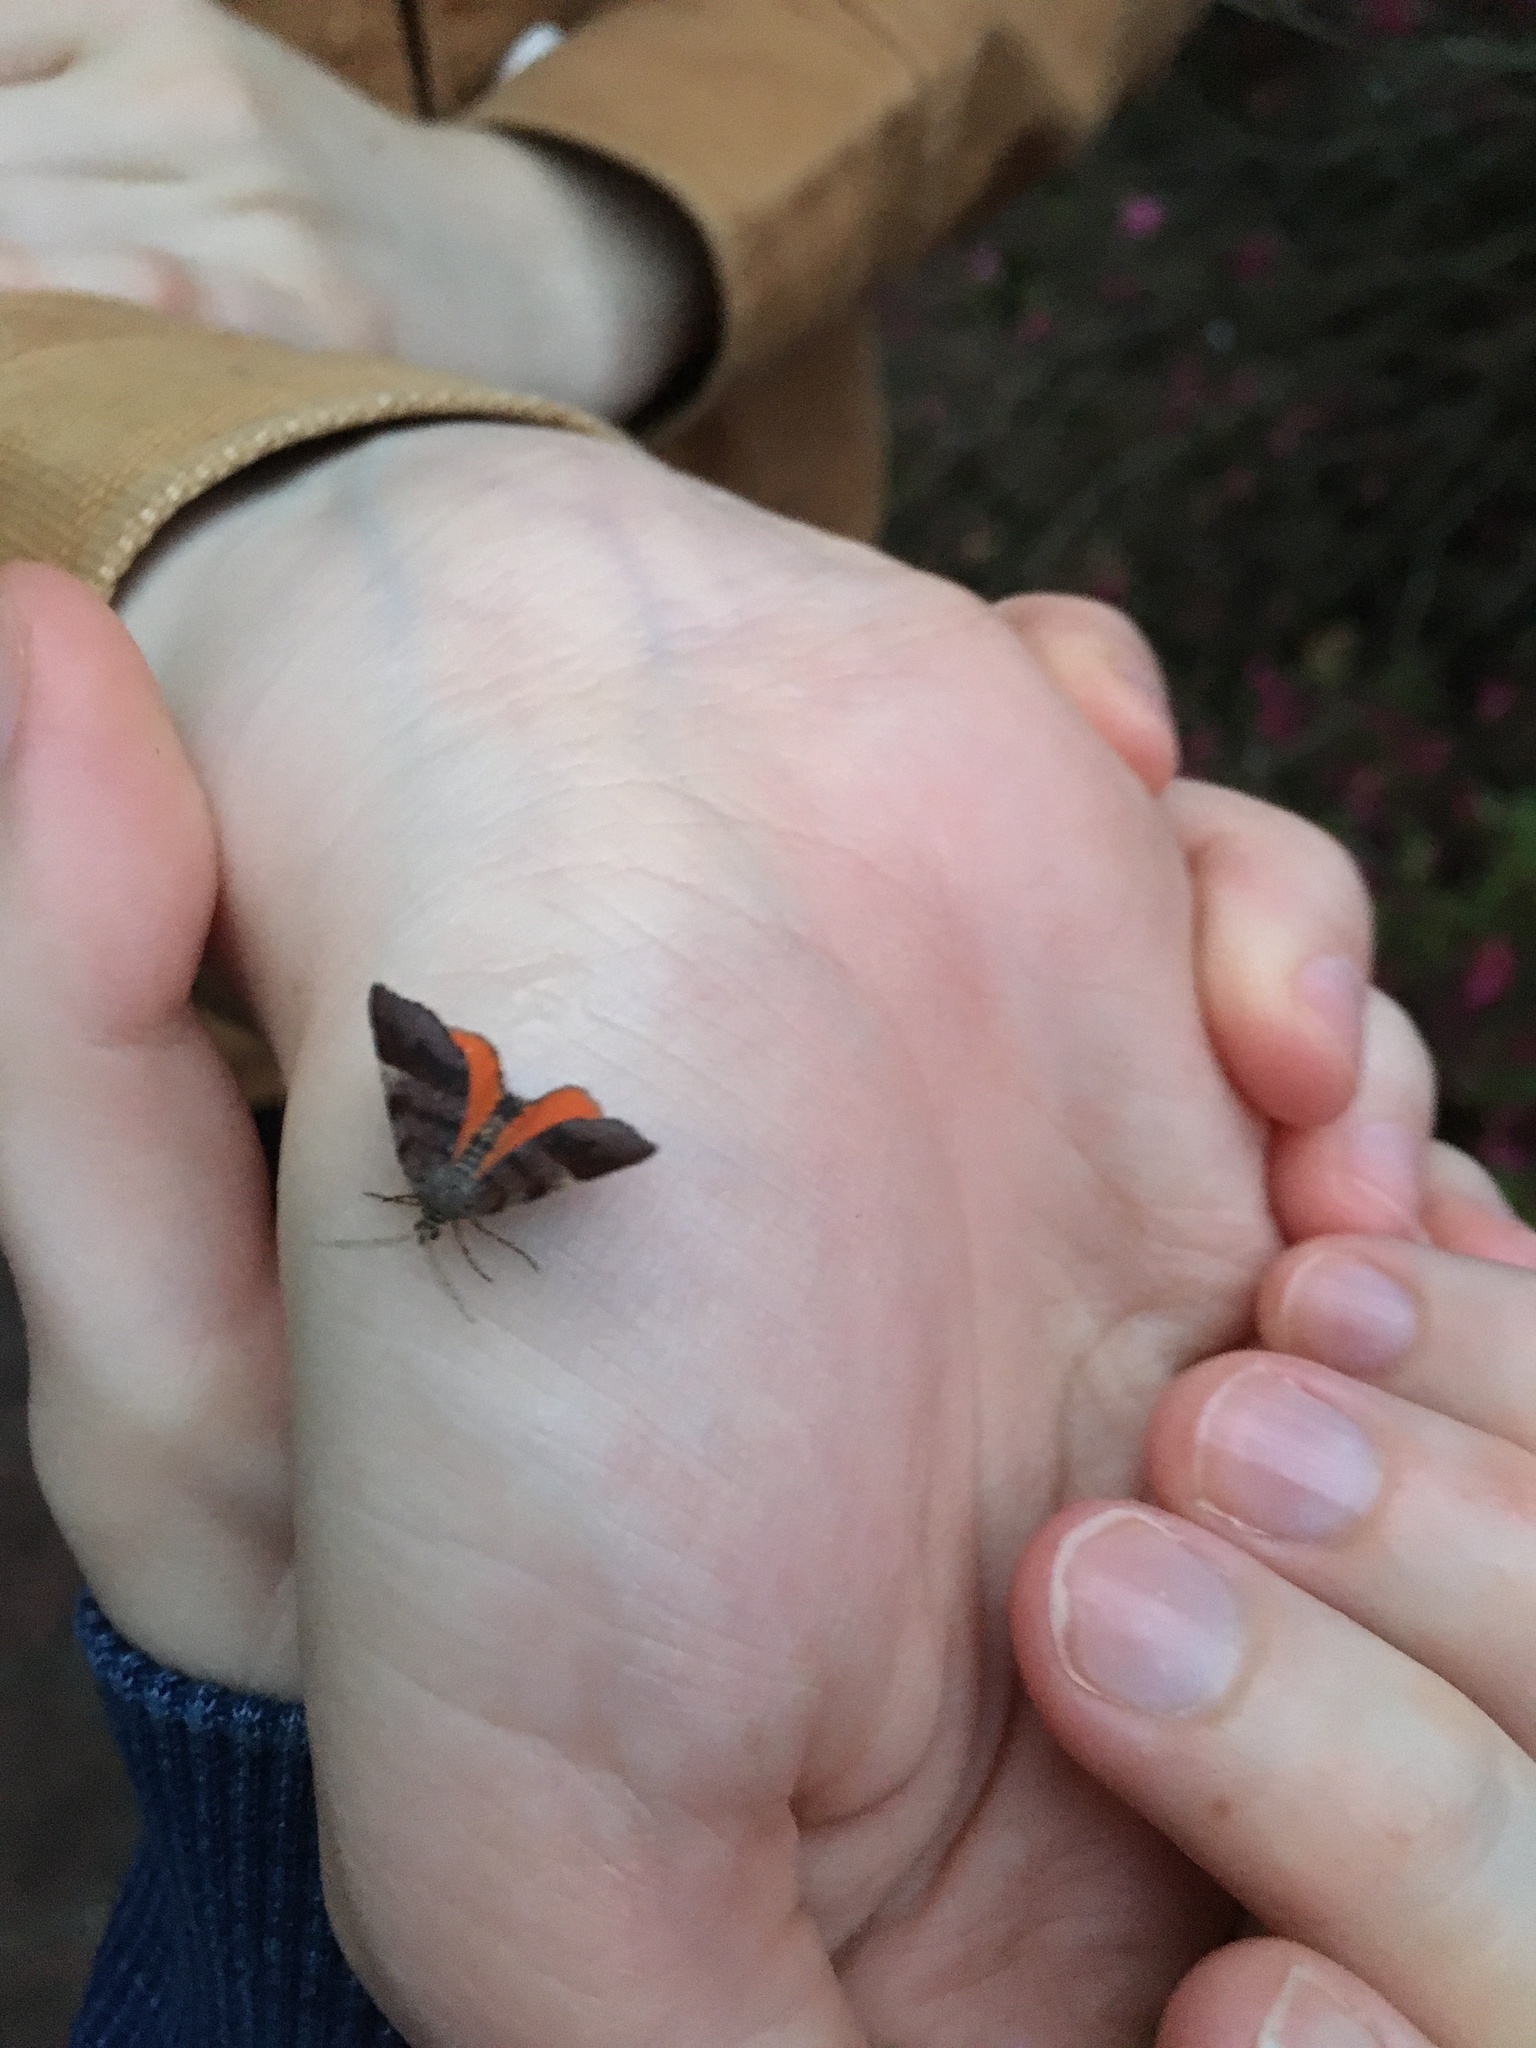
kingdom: Animalia
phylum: Arthropoda
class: Insecta
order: Lepidoptera
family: Geometridae
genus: Mellilla
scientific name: Mellilla xanthometata
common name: Orange wing moth
